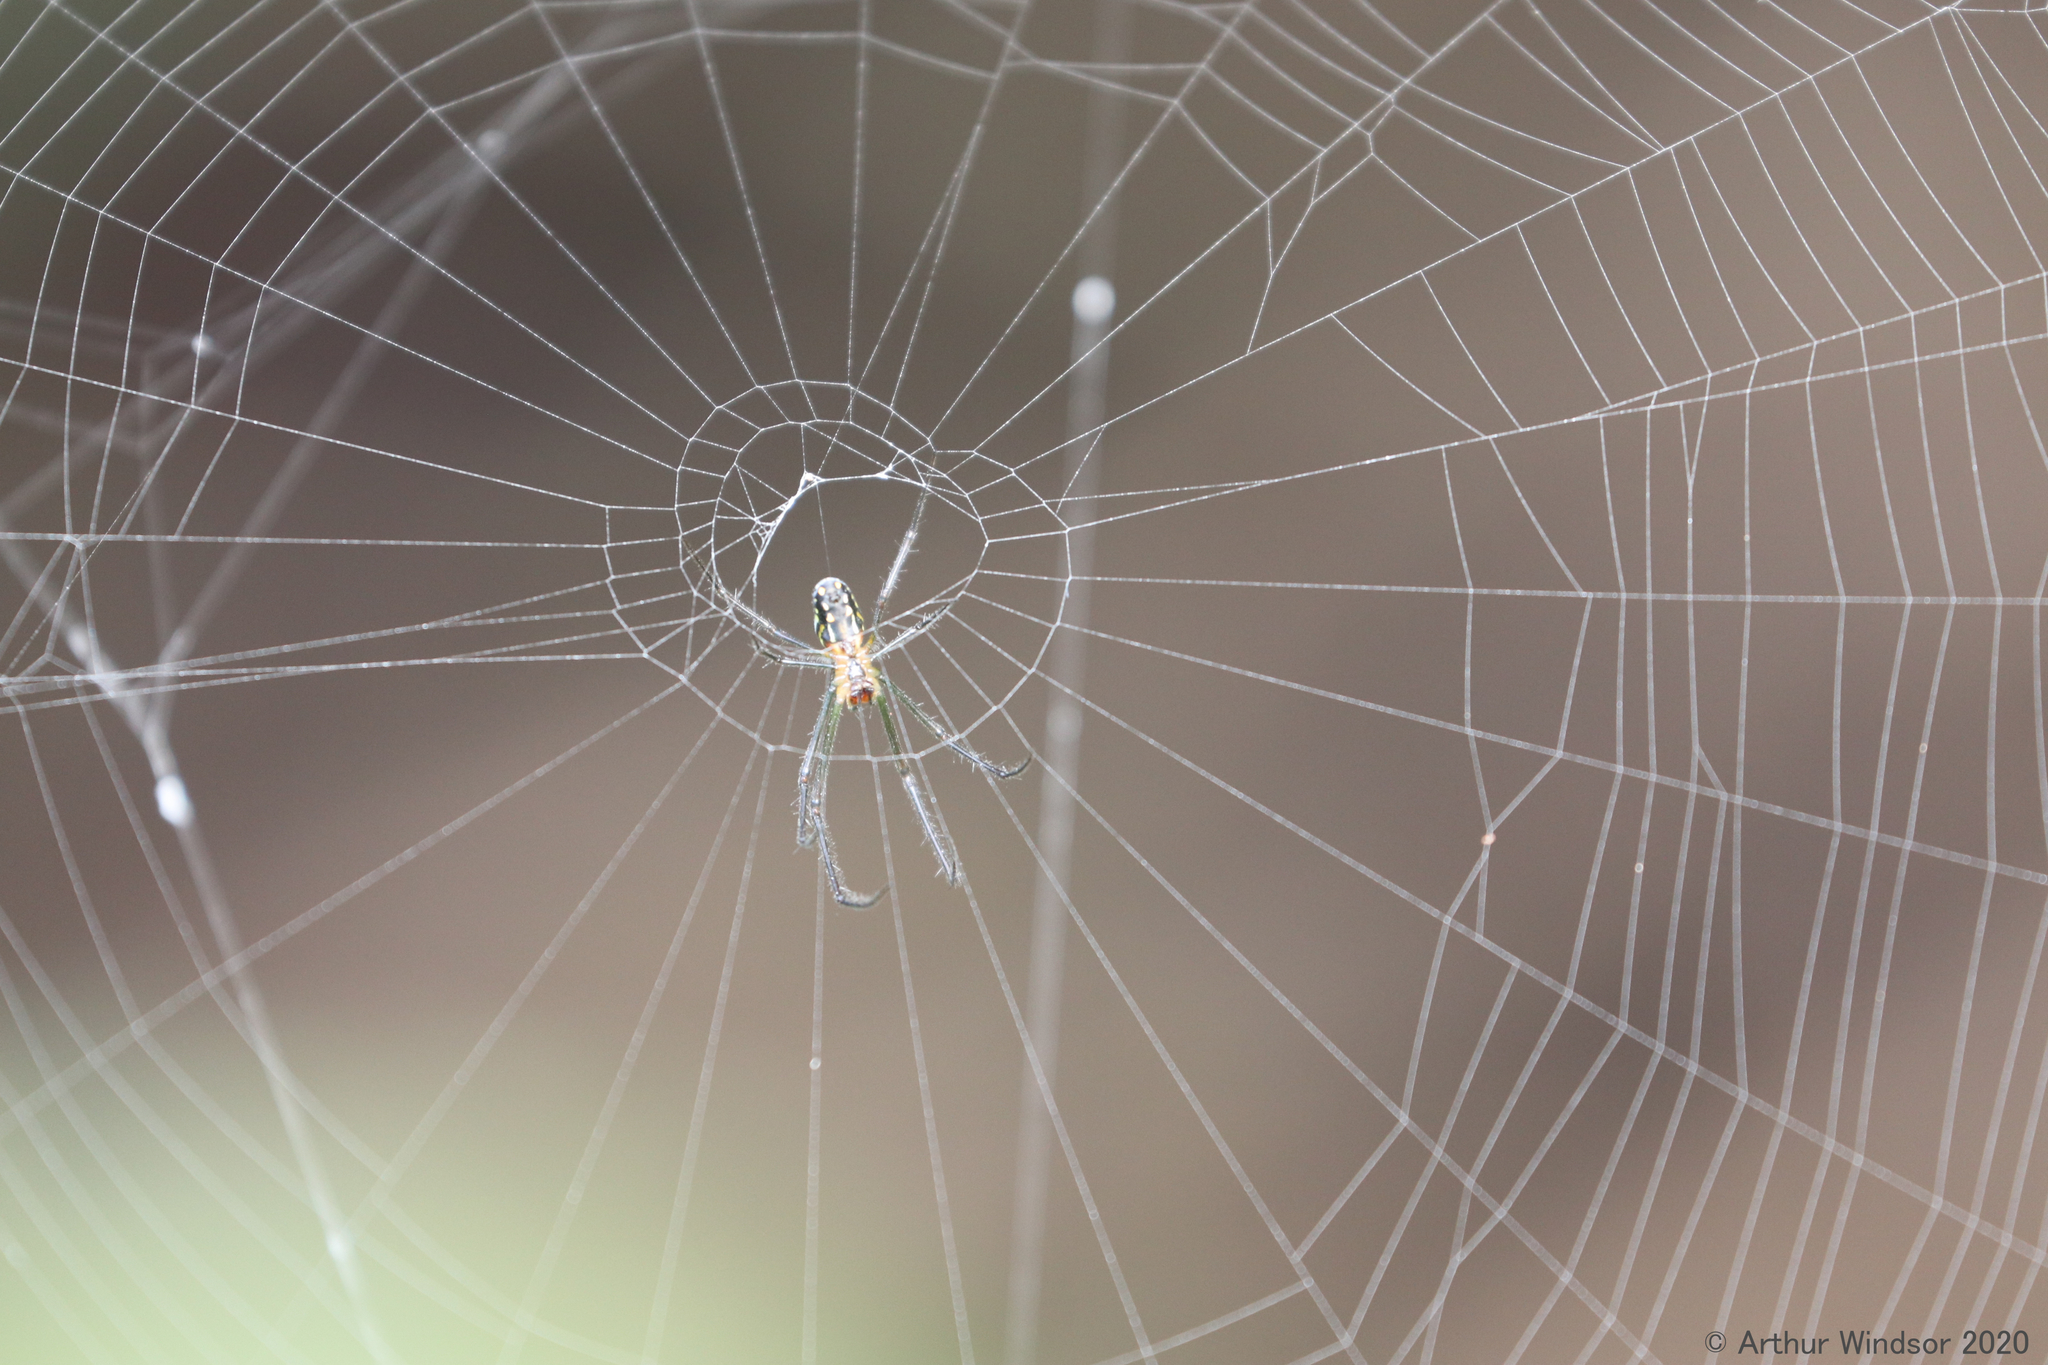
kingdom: Animalia
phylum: Arthropoda
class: Arachnida
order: Araneae
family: Tetragnathidae
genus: Leucauge
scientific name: Leucauge argyra
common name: Longjawed orb weavers
